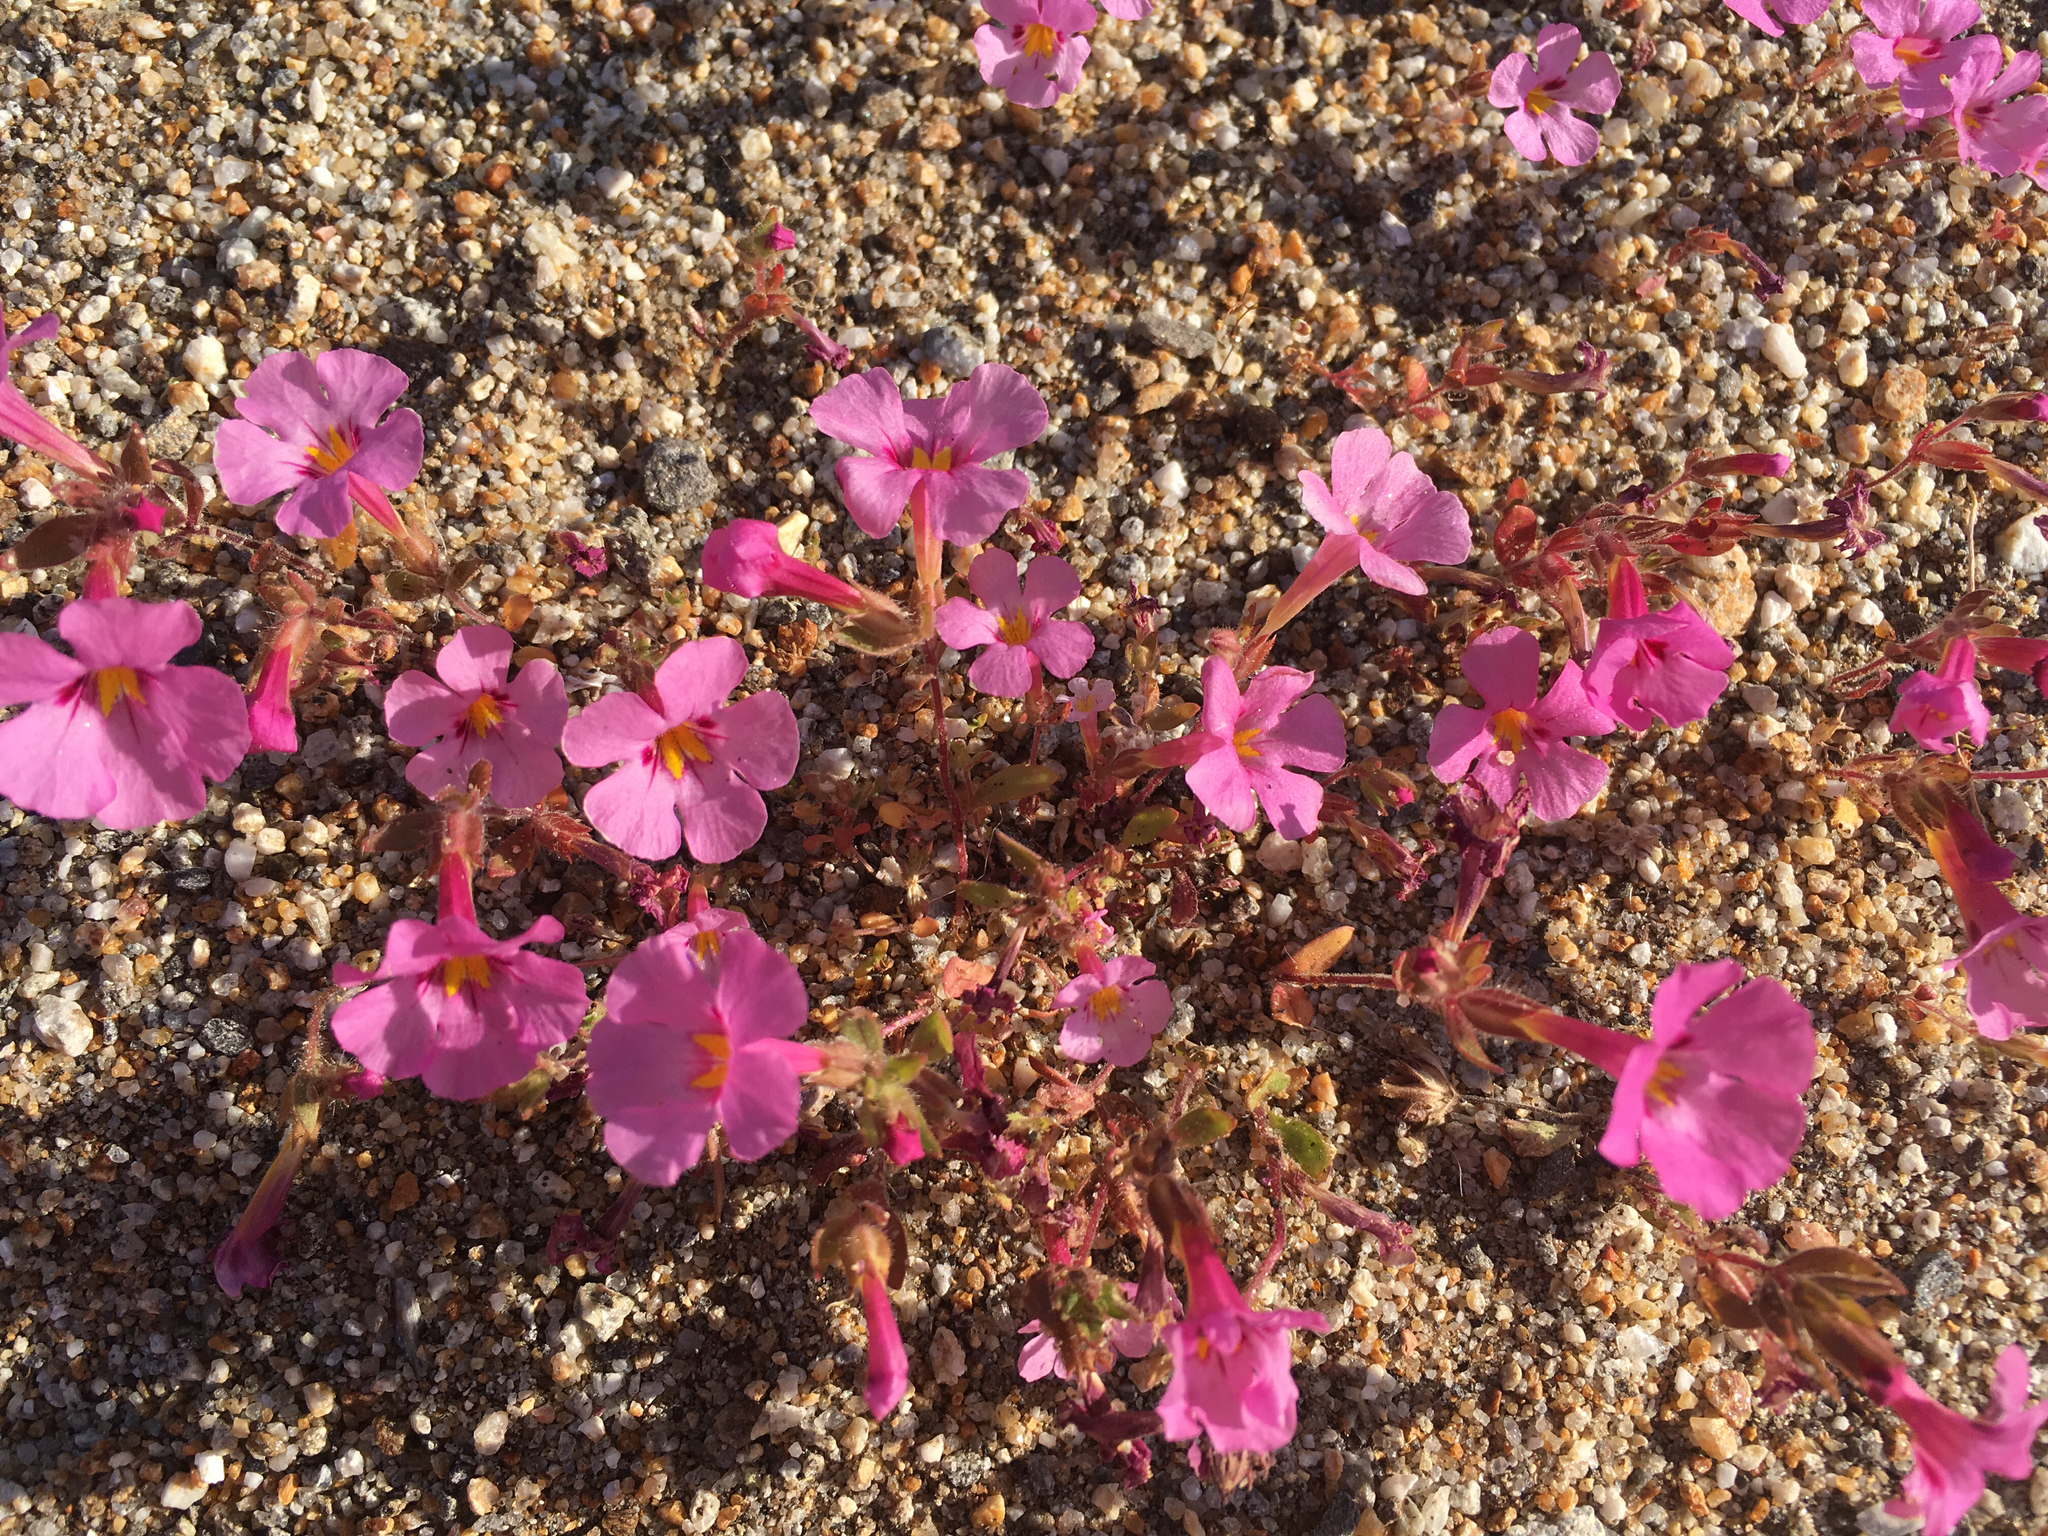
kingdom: Plantae
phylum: Tracheophyta
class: Magnoliopsida
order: Lamiales
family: Phrymaceae
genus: Diplacus
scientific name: Diplacus bigelovii
